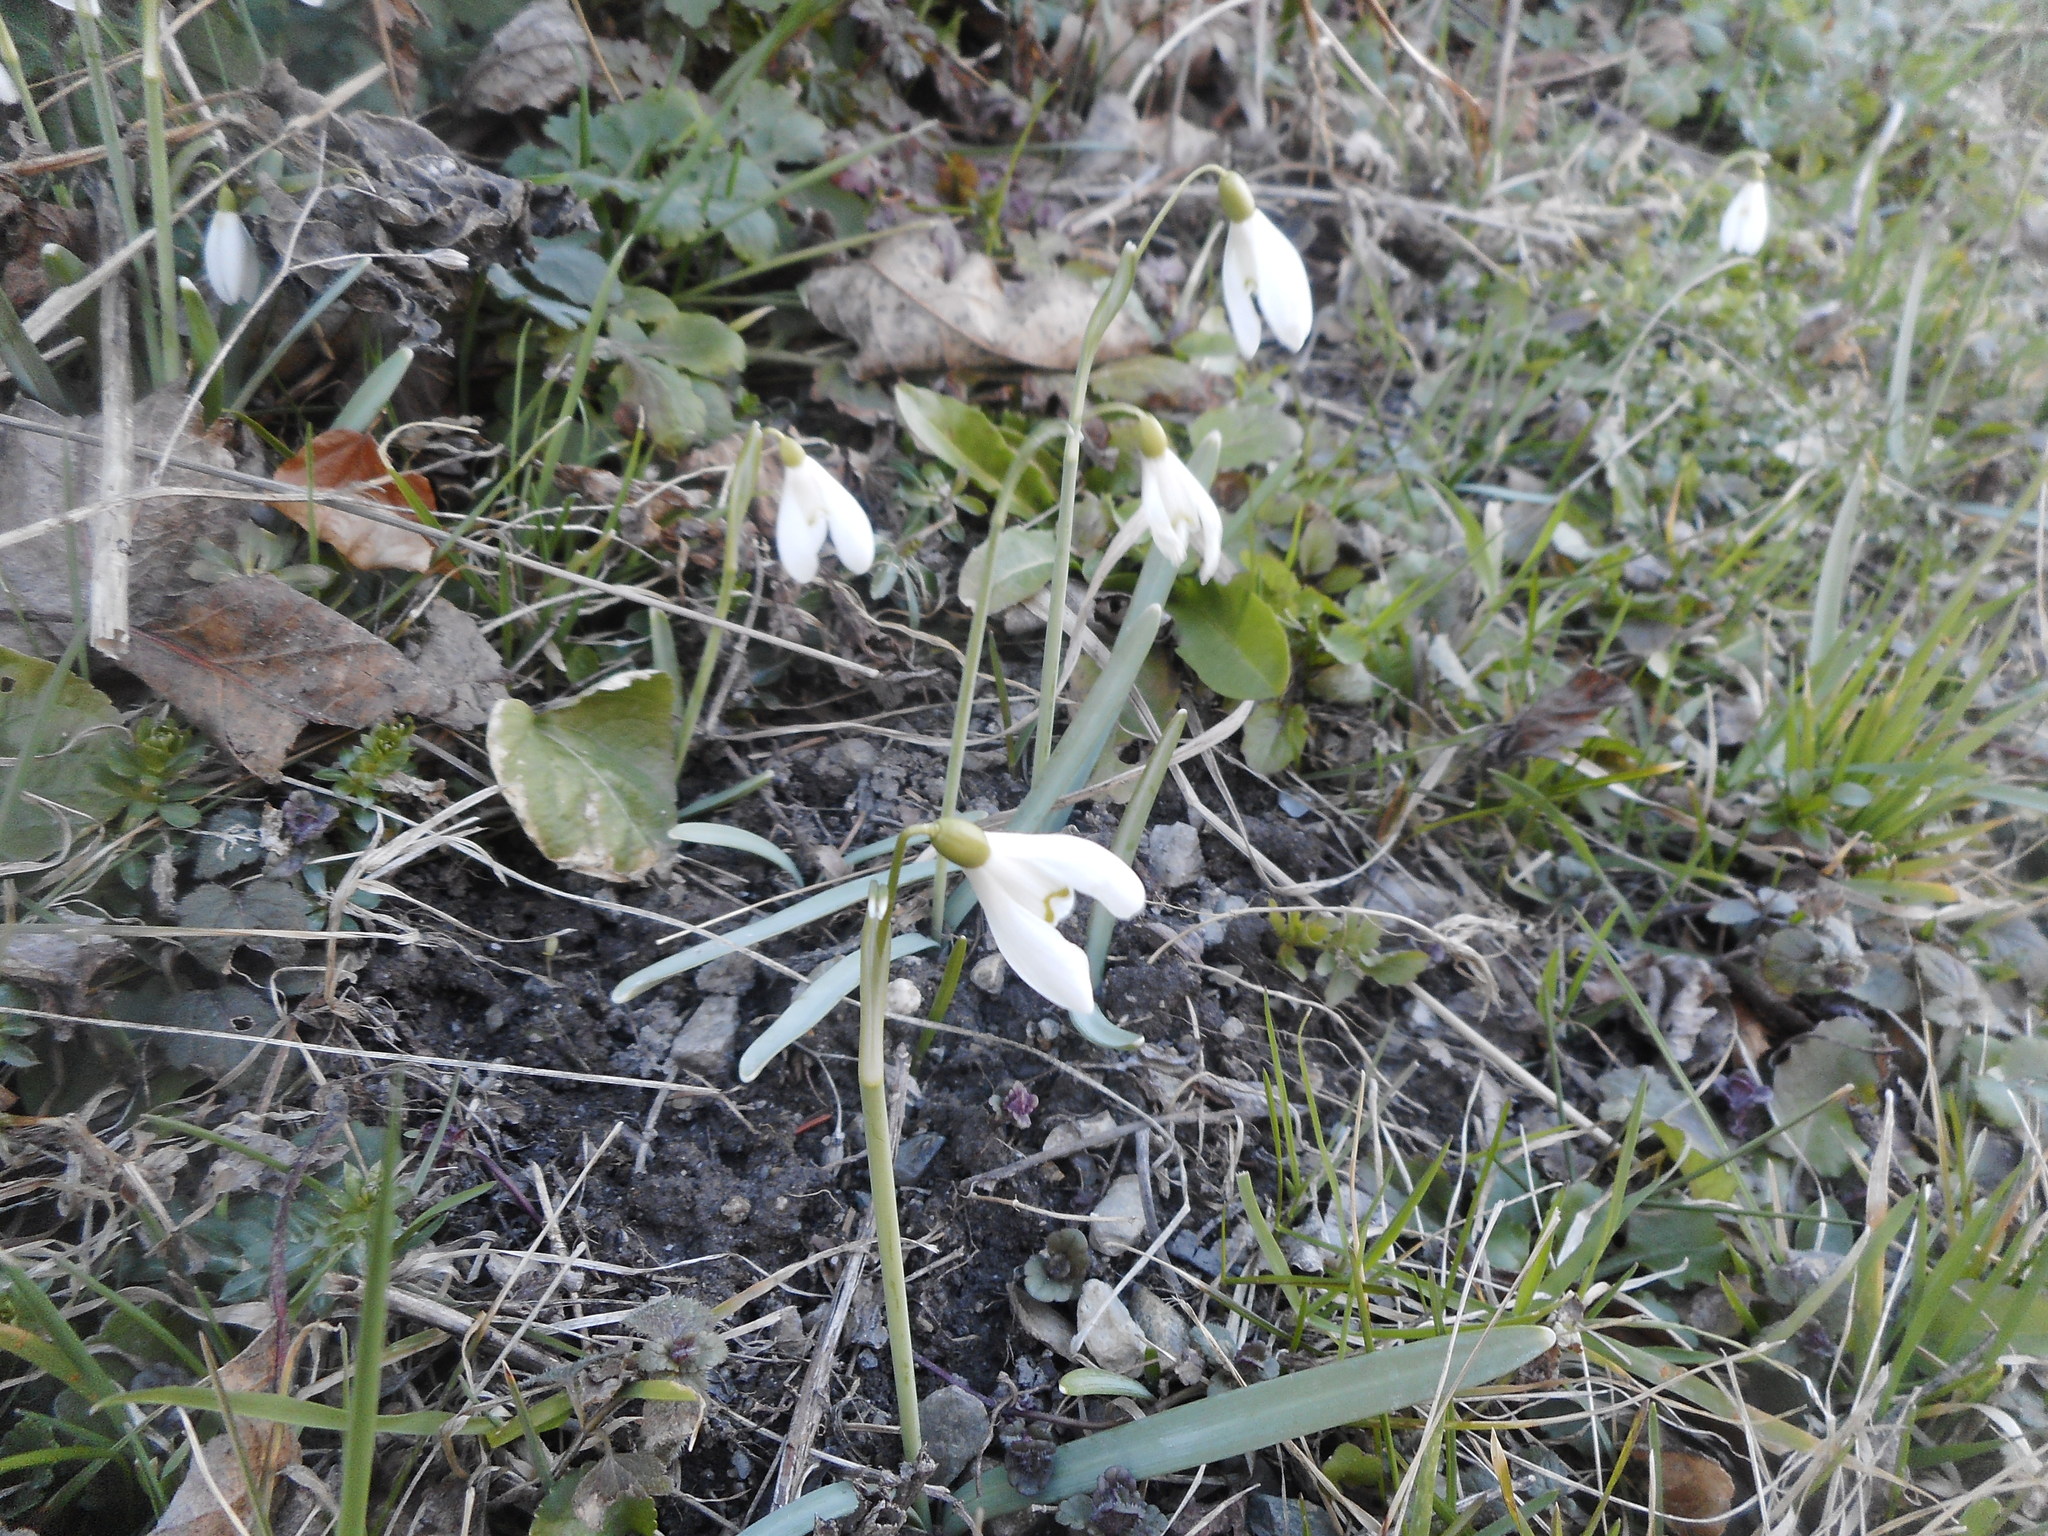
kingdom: Plantae
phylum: Tracheophyta
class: Liliopsida
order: Asparagales
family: Amaryllidaceae
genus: Galanthus
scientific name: Galanthus nivalis
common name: Snowdrop
